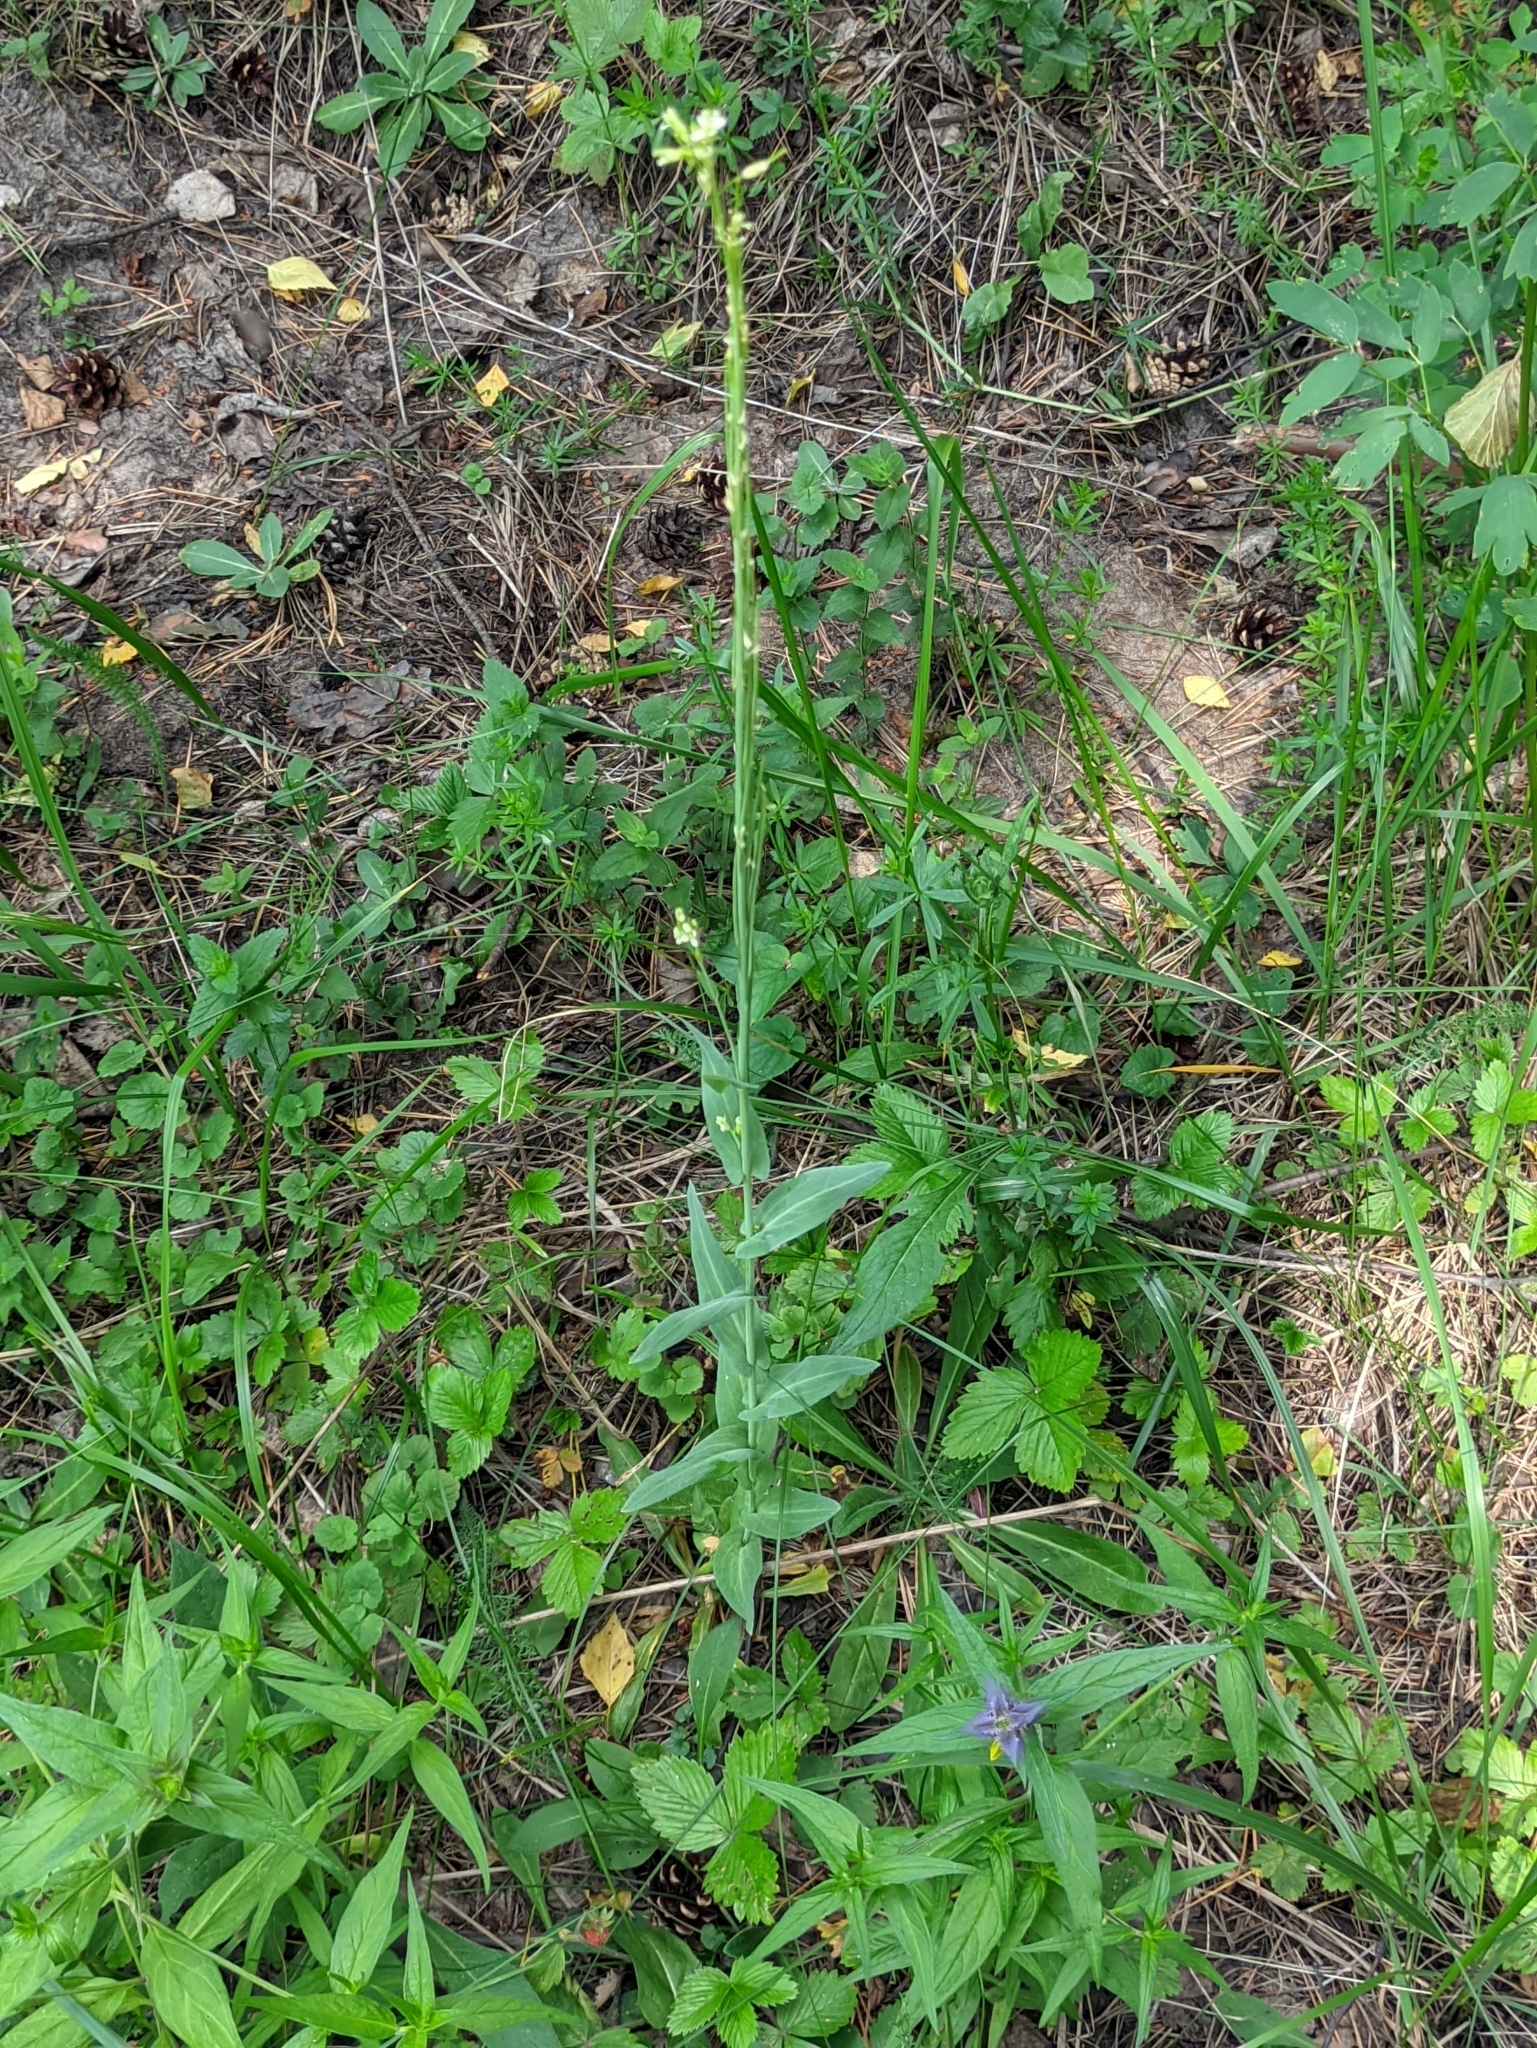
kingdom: Plantae
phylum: Tracheophyta
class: Magnoliopsida
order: Brassicales
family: Brassicaceae
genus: Turritis
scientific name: Turritis glabra
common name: Tower rockcress
